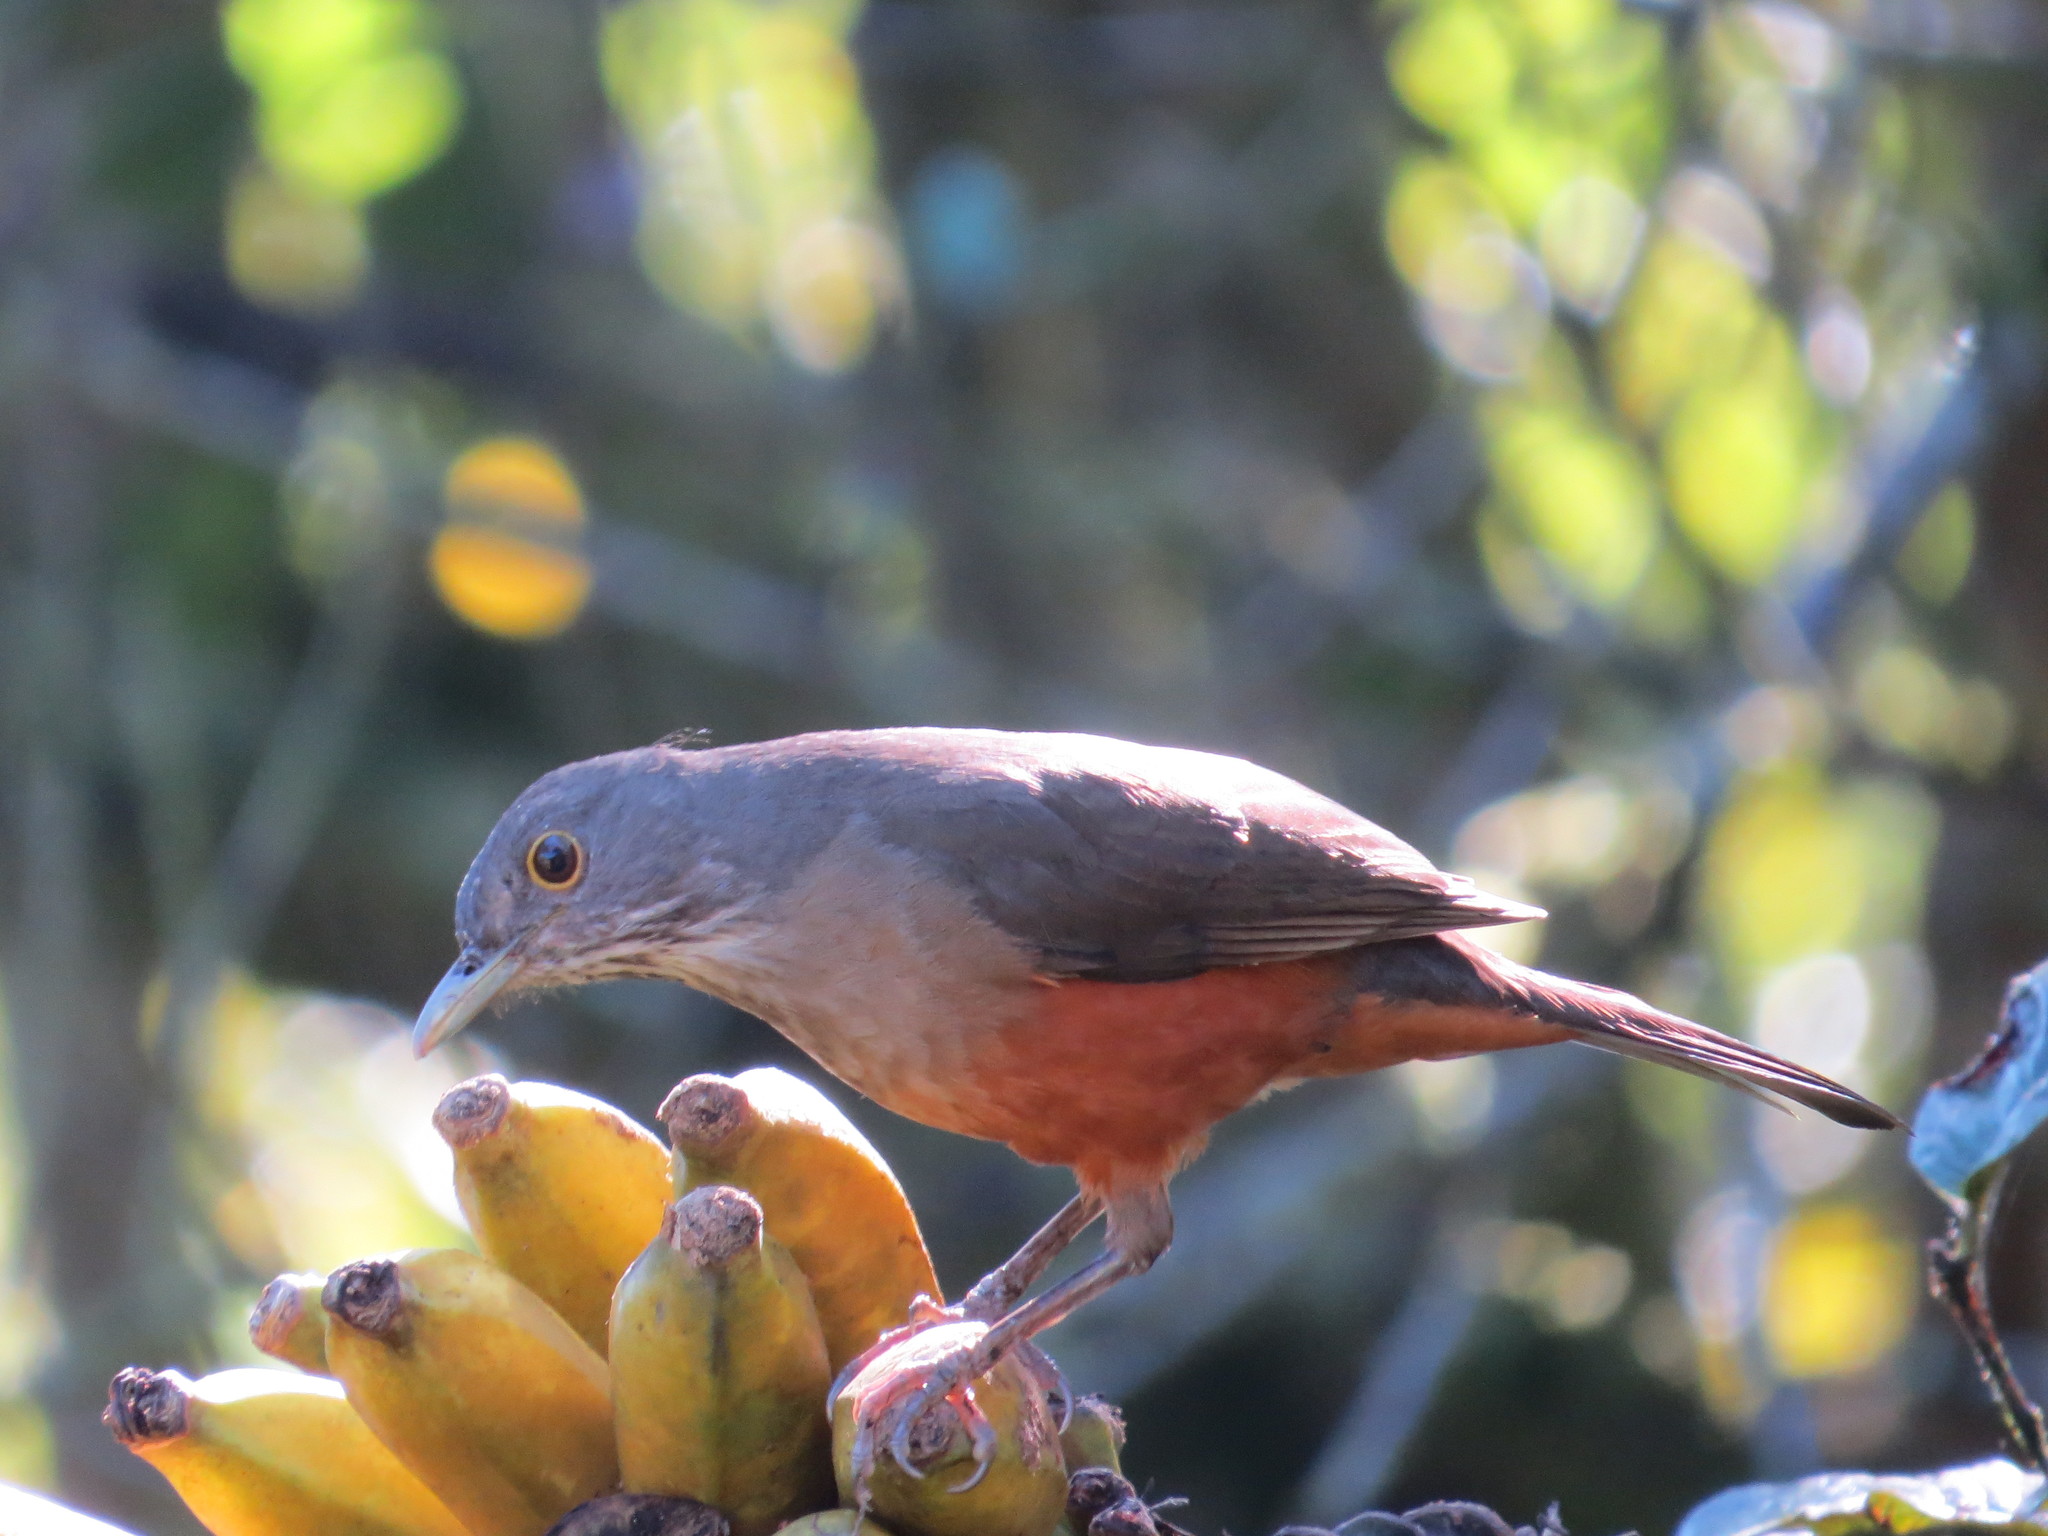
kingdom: Animalia
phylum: Chordata
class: Aves
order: Passeriformes
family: Turdidae
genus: Turdus
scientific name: Turdus rufiventris
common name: Rufous-bellied thrush
